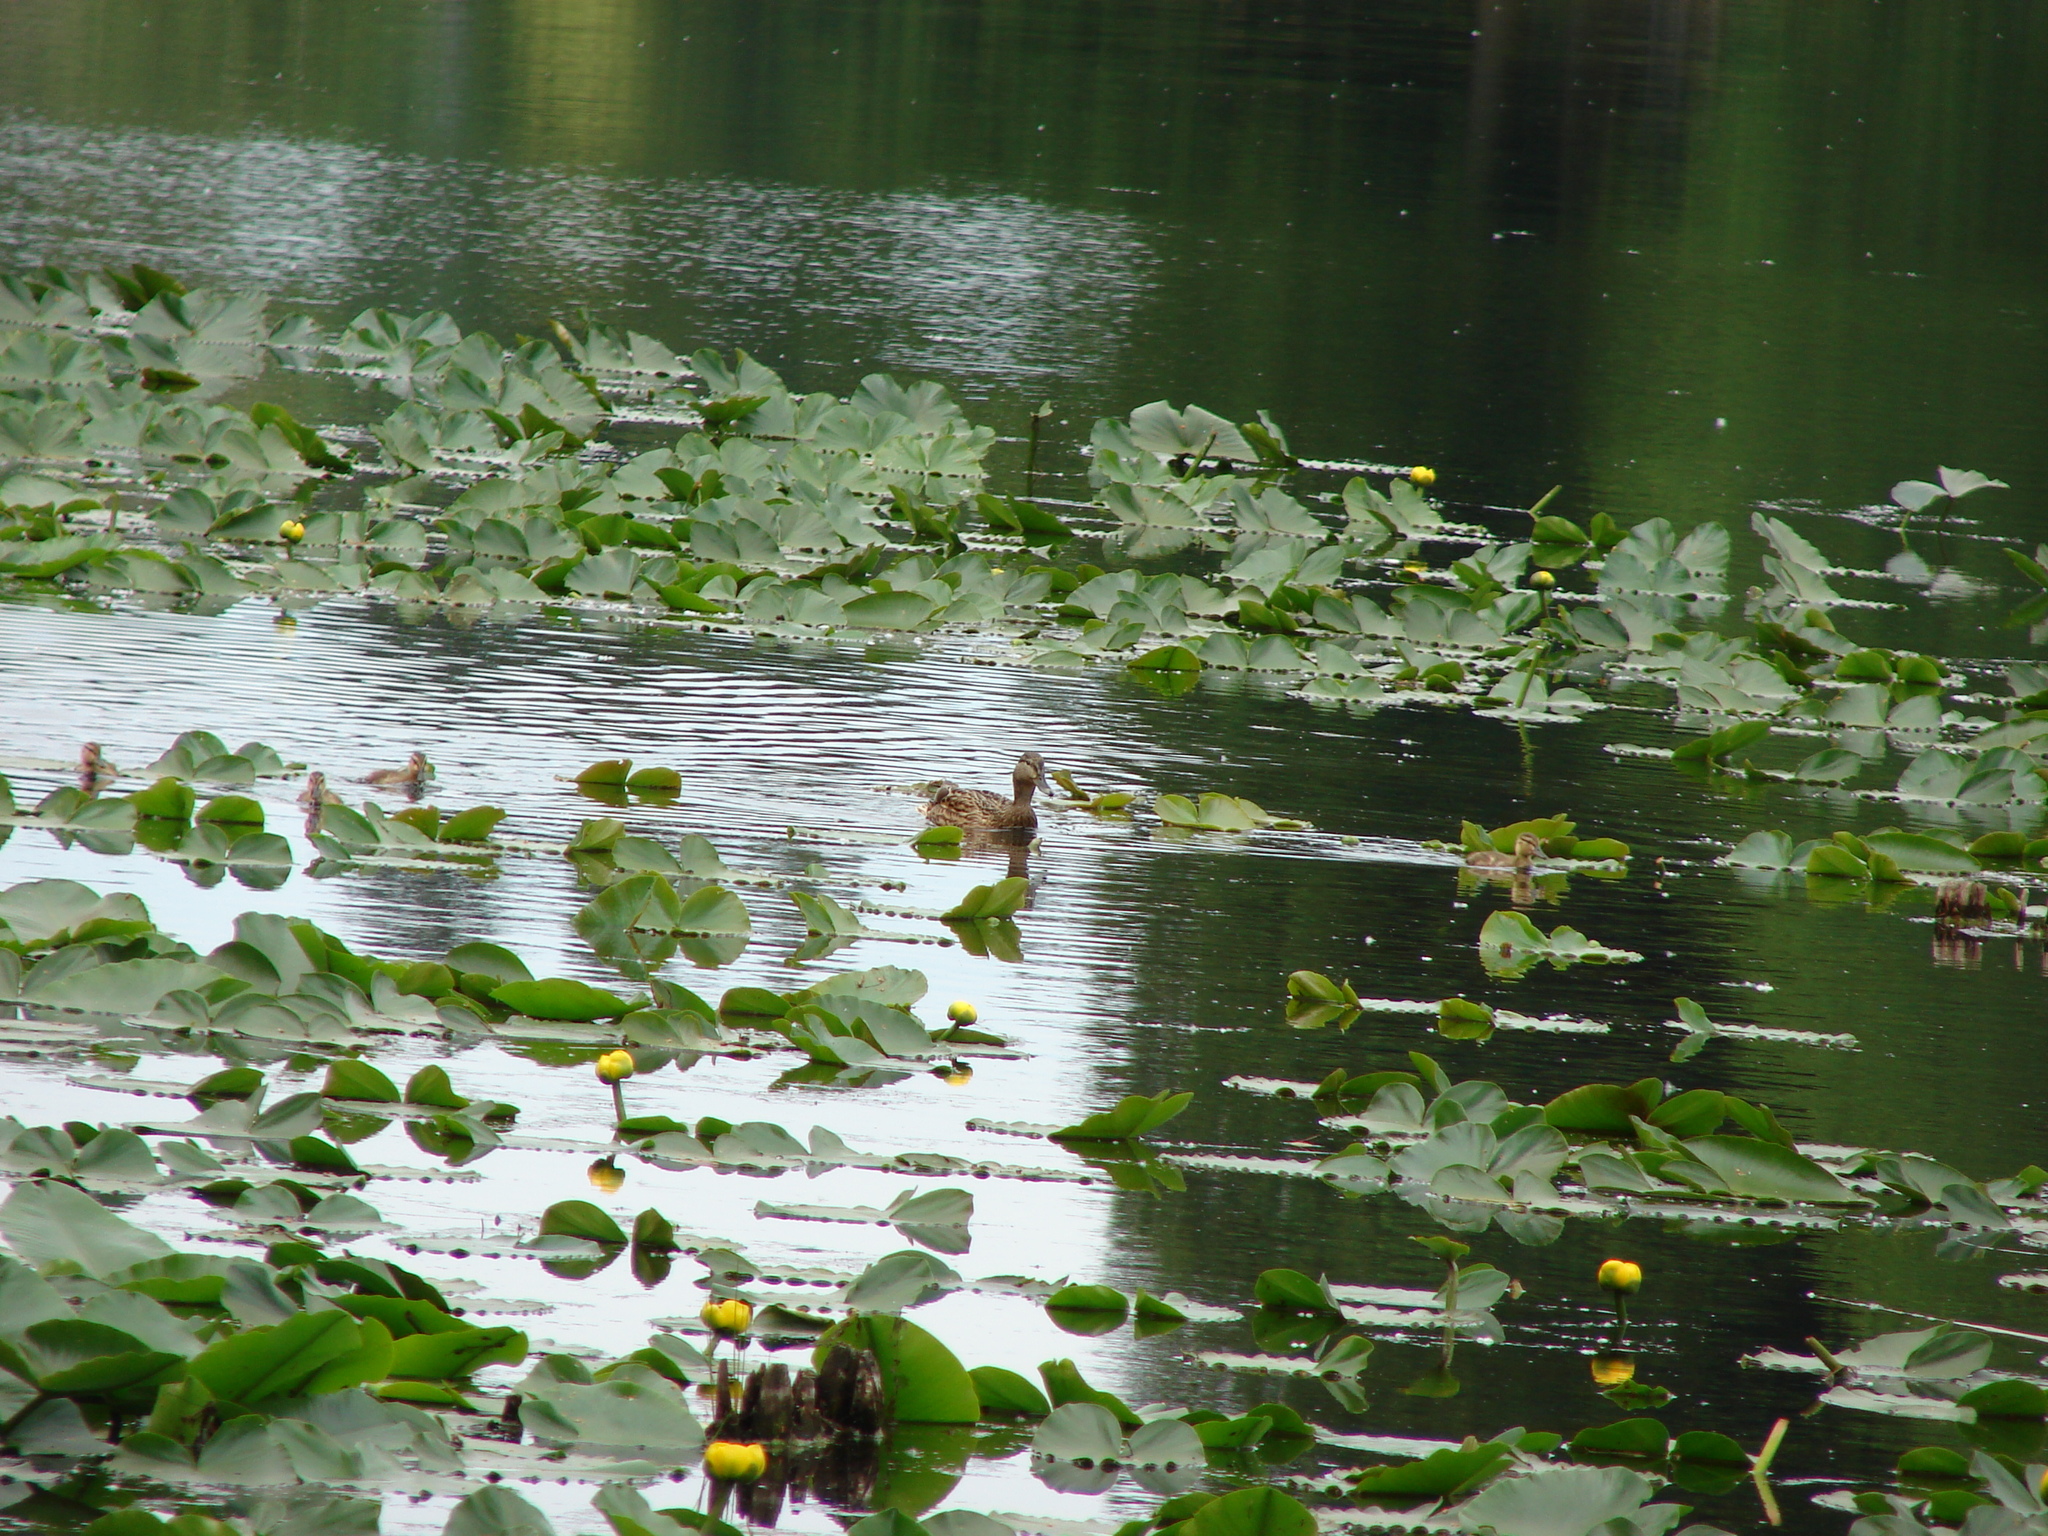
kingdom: Animalia
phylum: Chordata
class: Aves
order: Anseriformes
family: Anatidae
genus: Anas
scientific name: Anas platyrhynchos
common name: Mallard
